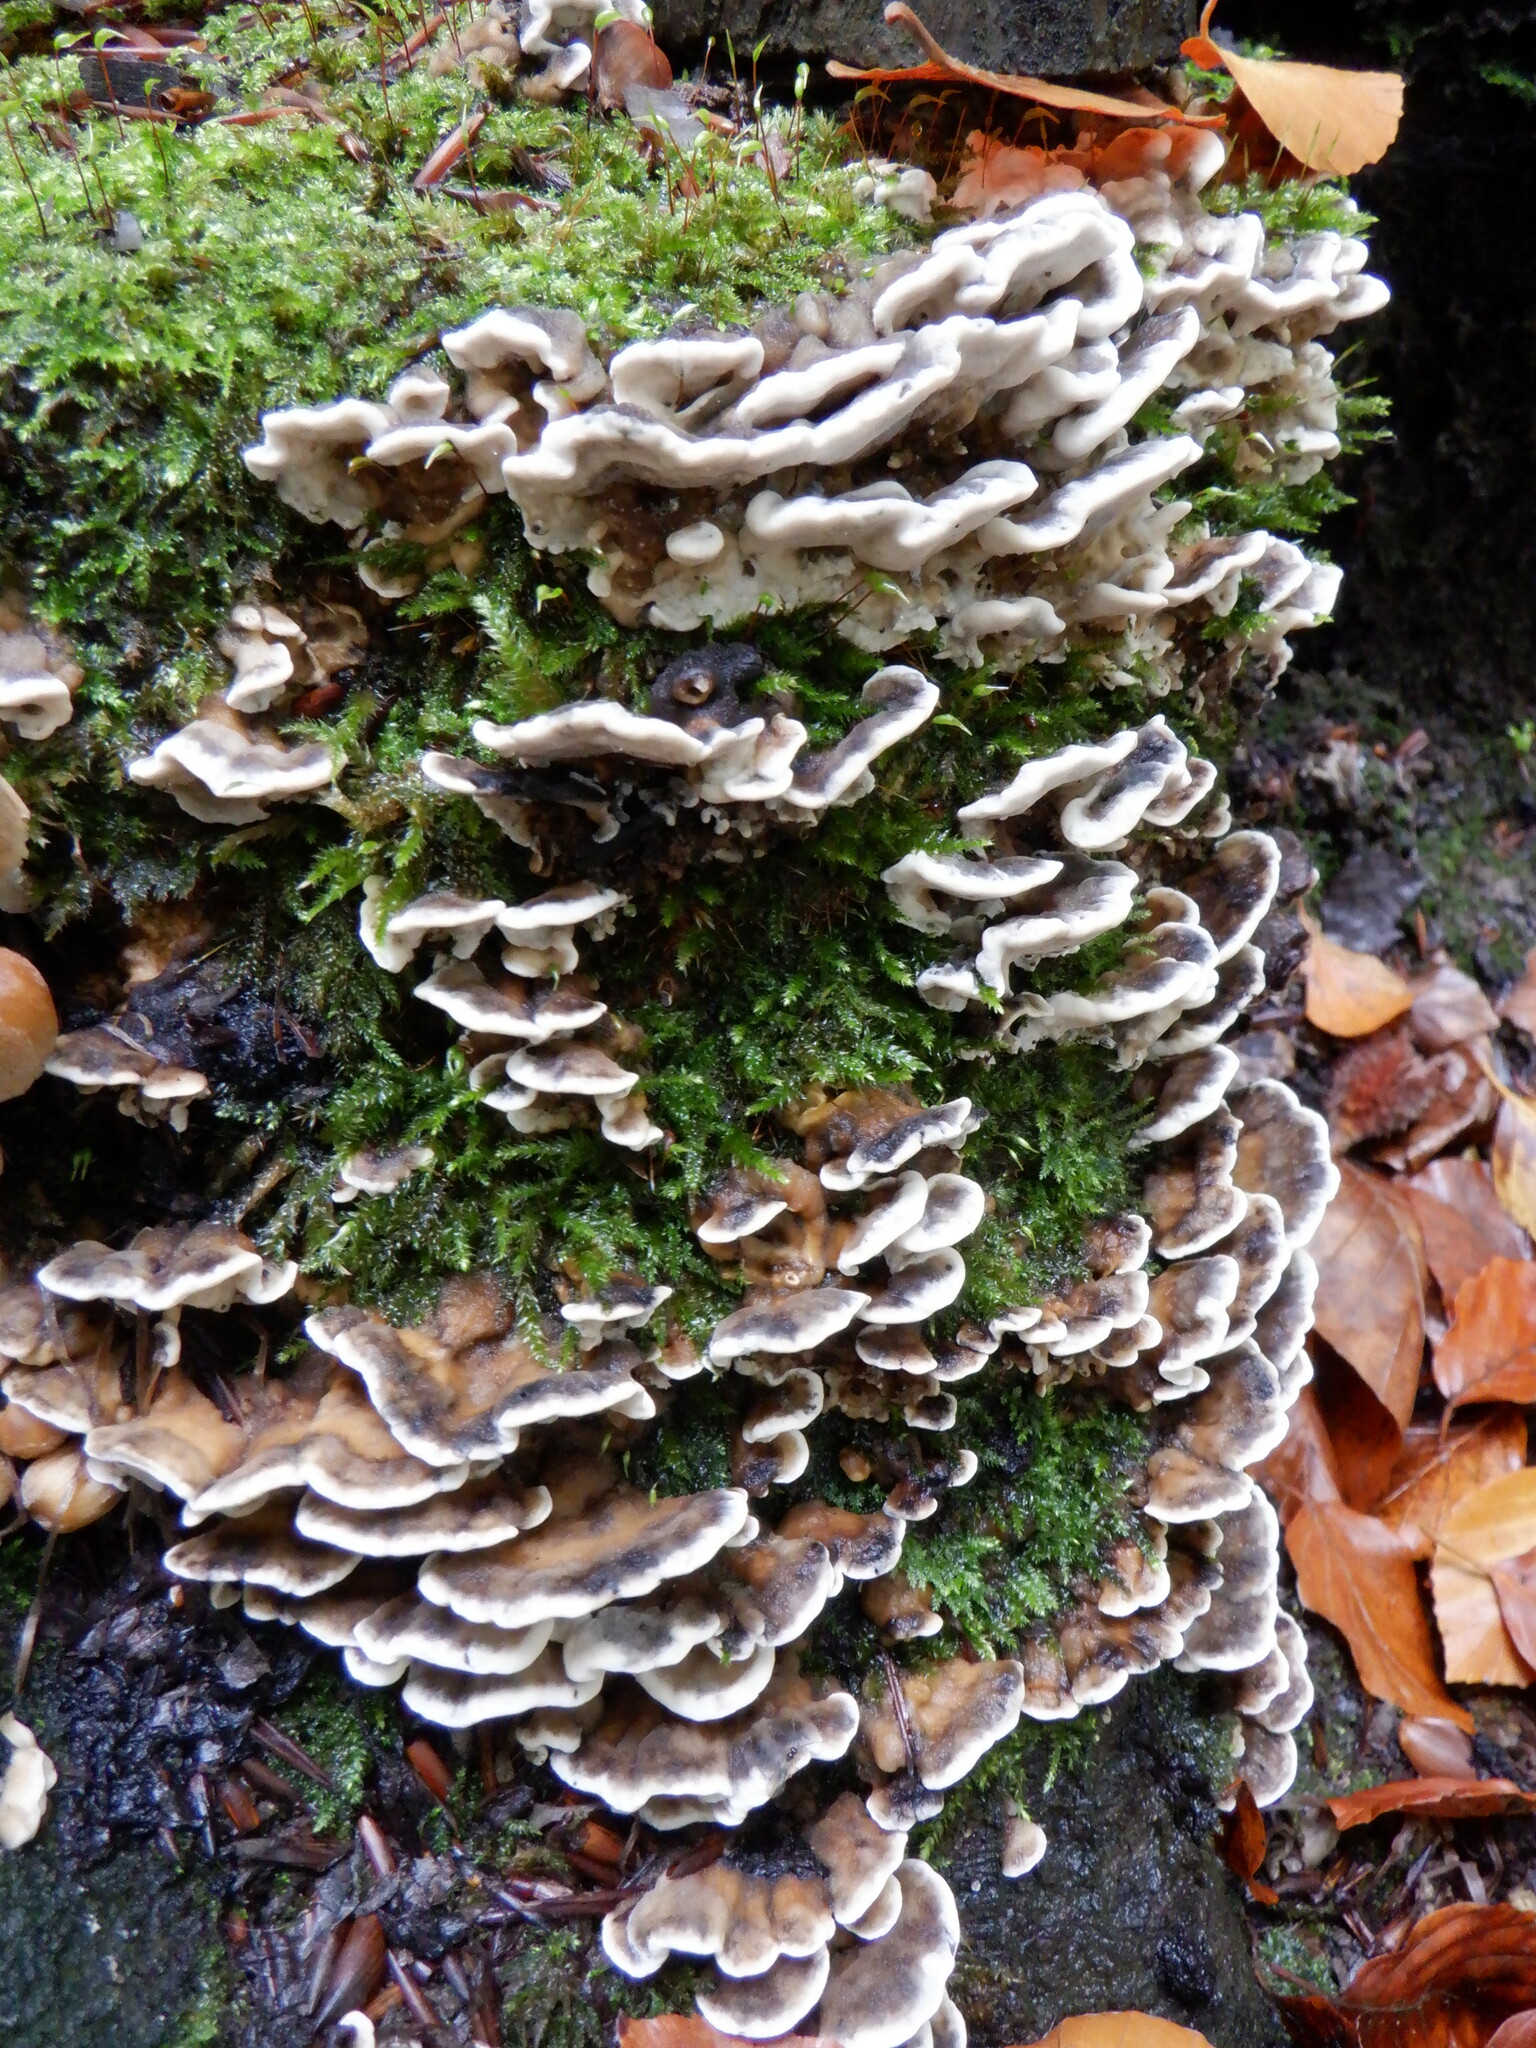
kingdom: Fungi
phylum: Basidiomycota
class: Agaricomycetes
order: Polyporales
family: Phanerochaetaceae
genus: Bjerkandera
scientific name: Bjerkandera adusta
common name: Smoky bracket
